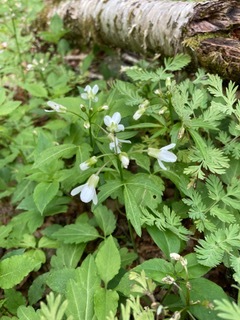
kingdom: Plantae
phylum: Tracheophyta
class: Magnoliopsida
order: Brassicales
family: Brassicaceae
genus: Cardamine
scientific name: Cardamine diphylla
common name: Broad-leaved toothwort
